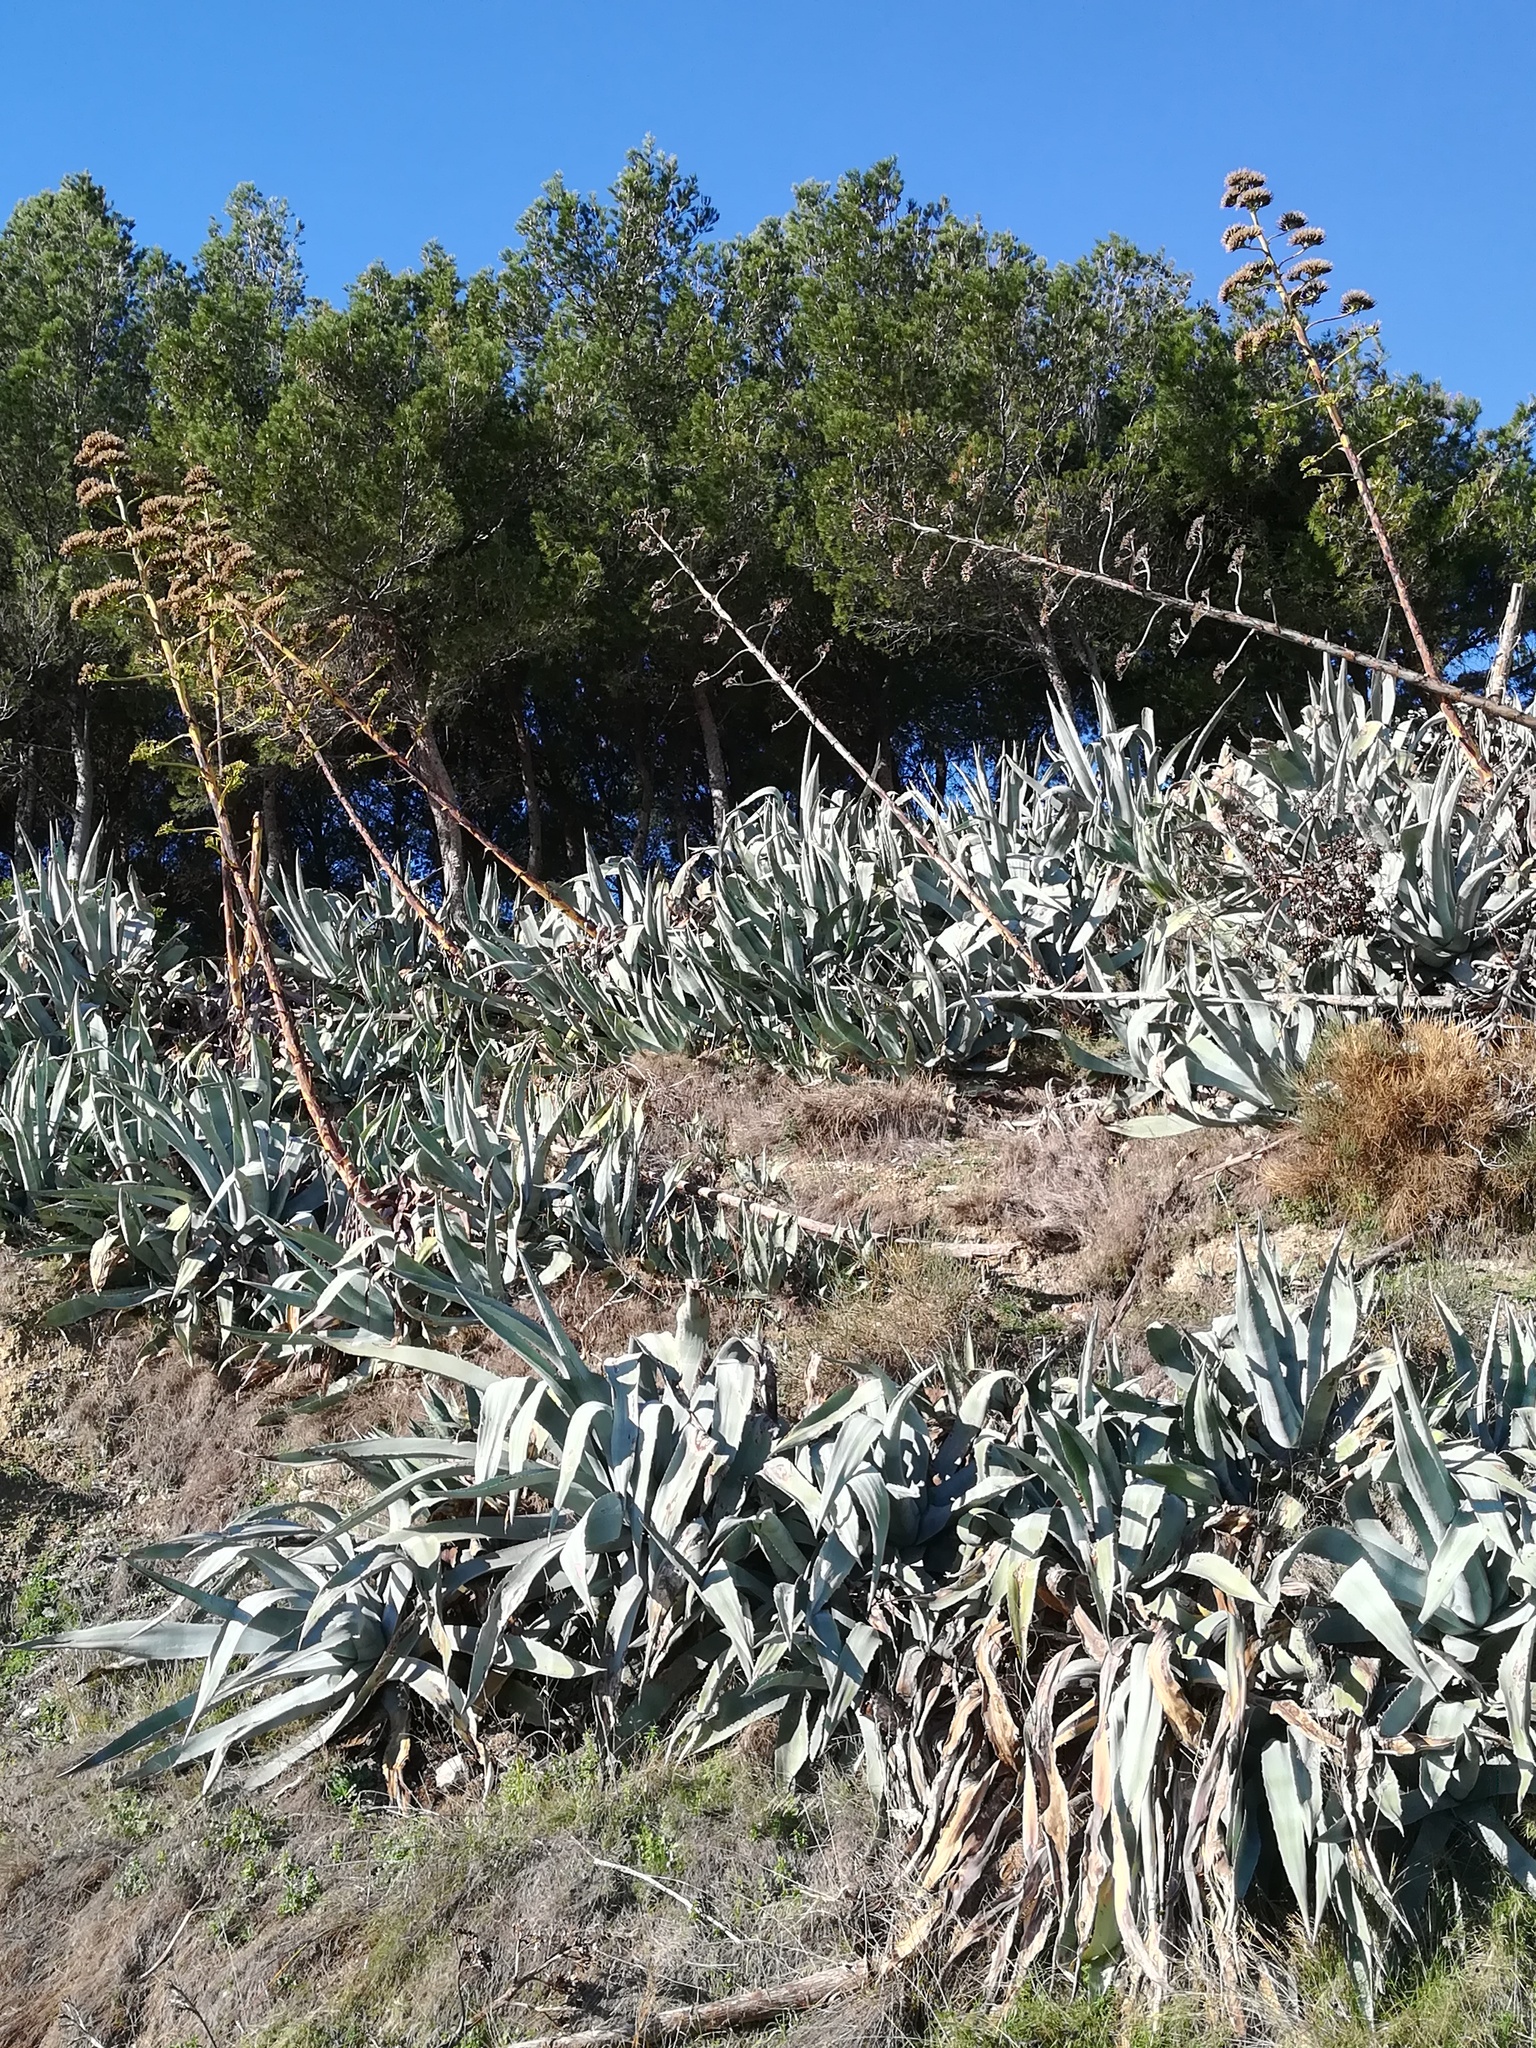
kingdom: Plantae
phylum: Tracheophyta
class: Liliopsida
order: Asparagales
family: Asparagaceae
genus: Agave
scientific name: Agave americana
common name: Centuryplant
